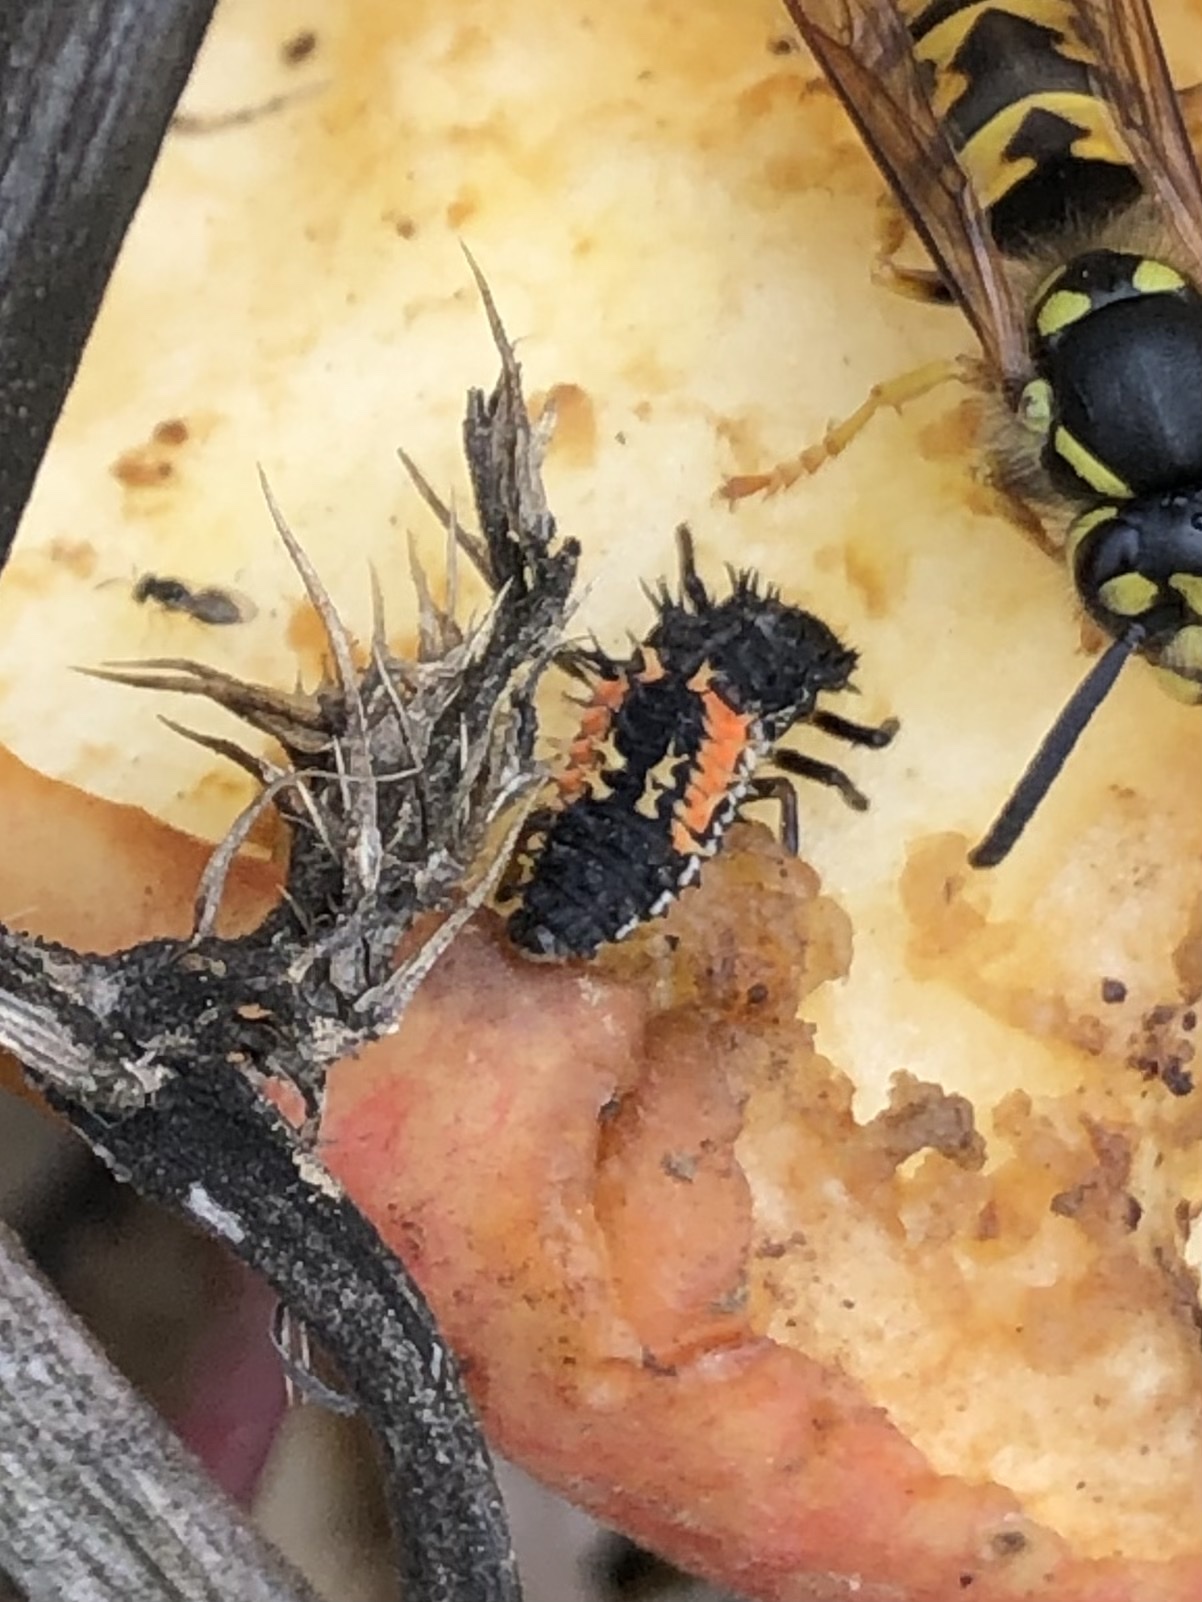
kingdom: Animalia
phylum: Arthropoda
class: Insecta
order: Coleoptera
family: Coccinellidae
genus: Harmonia
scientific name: Harmonia axyridis
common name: Harlequin ladybird
